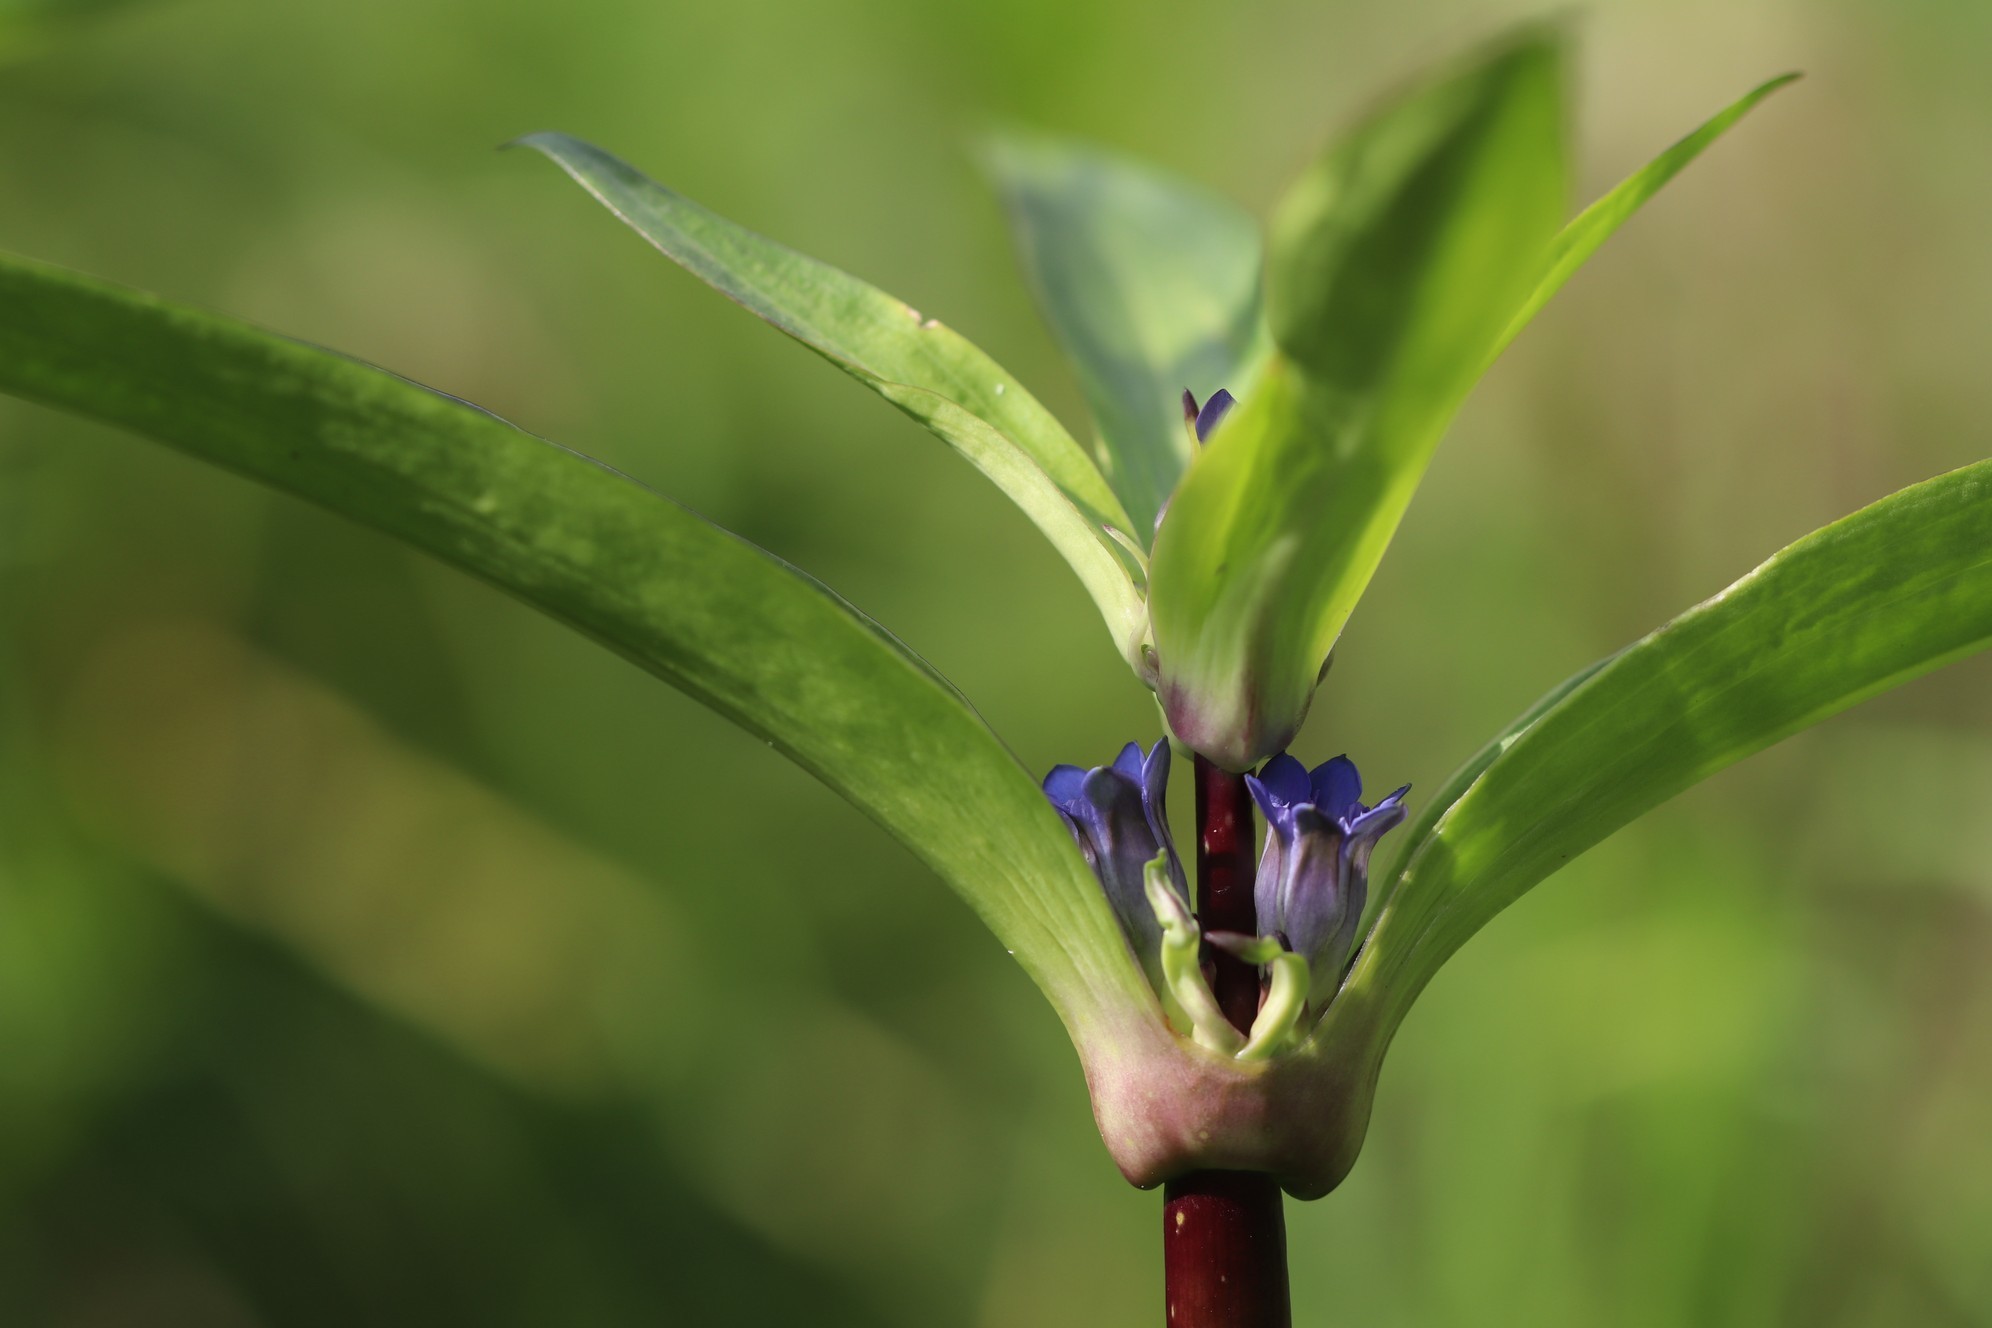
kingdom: Plantae
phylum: Tracheophyta
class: Magnoliopsida
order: Gentianales
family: Gentianaceae
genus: Gentiana
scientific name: Gentiana macrophylla
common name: Large-leaf gentian
